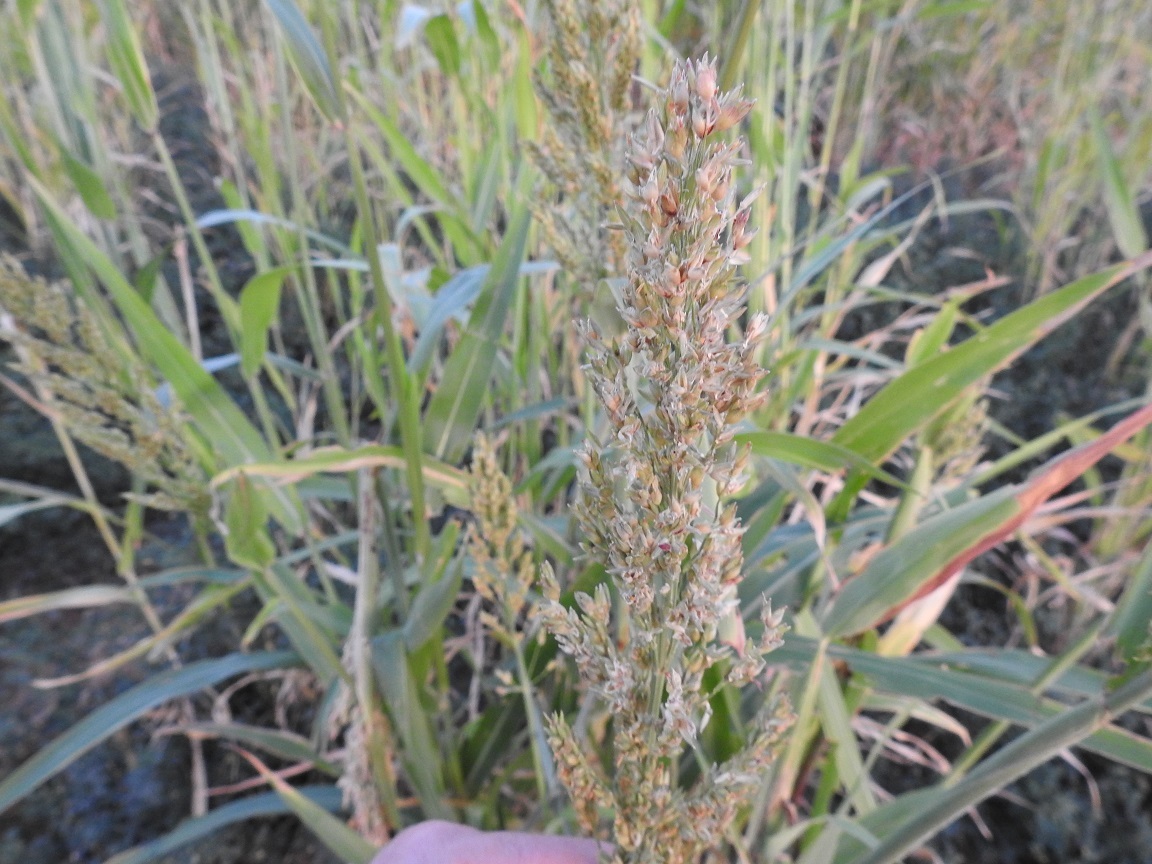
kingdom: Plantae
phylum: Tracheophyta
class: Liliopsida
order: Poales
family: Poaceae
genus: Sorghum
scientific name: Sorghum bicolor
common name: Sorghum
